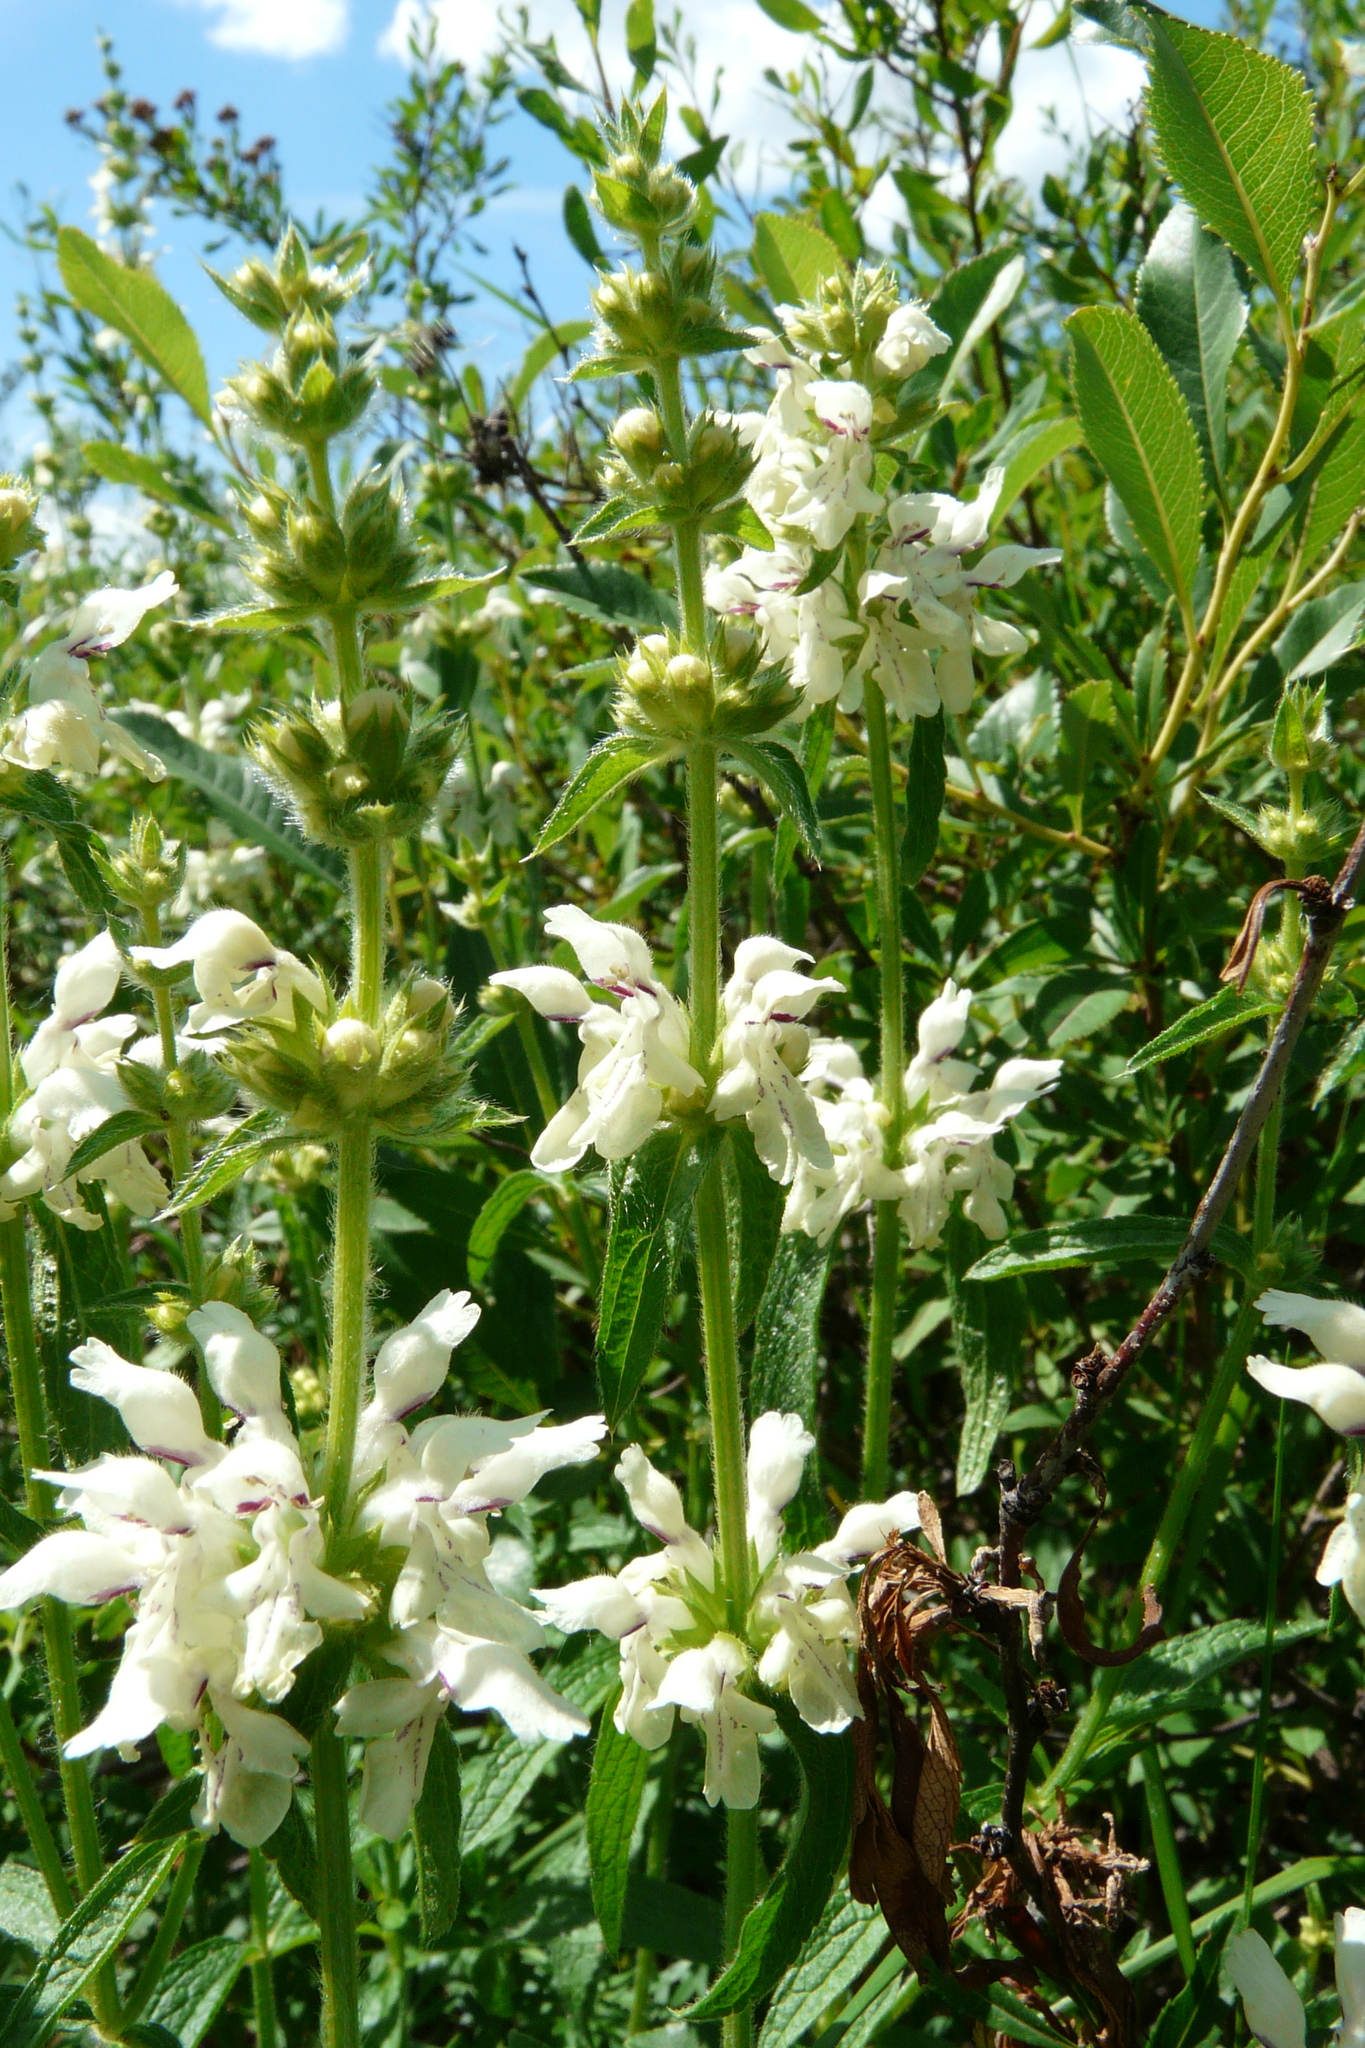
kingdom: Plantae
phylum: Tracheophyta
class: Magnoliopsida
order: Lamiales
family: Lamiaceae
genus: Stachys
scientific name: Stachys recta
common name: Perennial yellow-woundwort
